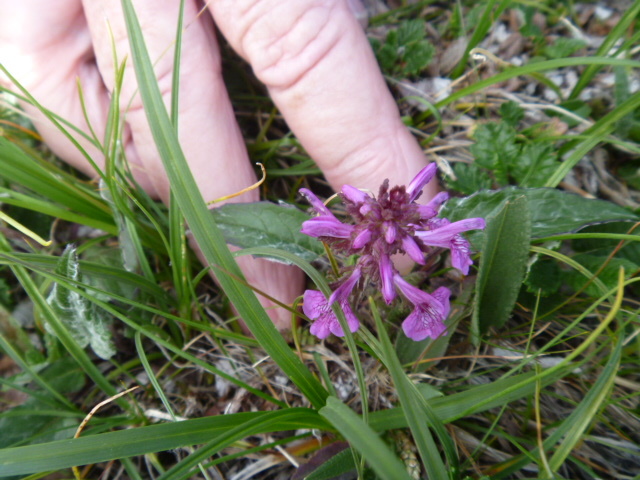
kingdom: Plantae
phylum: Tracheophyta
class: Magnoliopsida
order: Lamiales
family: Orobanchaceae
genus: Pedicularis
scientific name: Pedicularis verticillata
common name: Whorled lousewort
